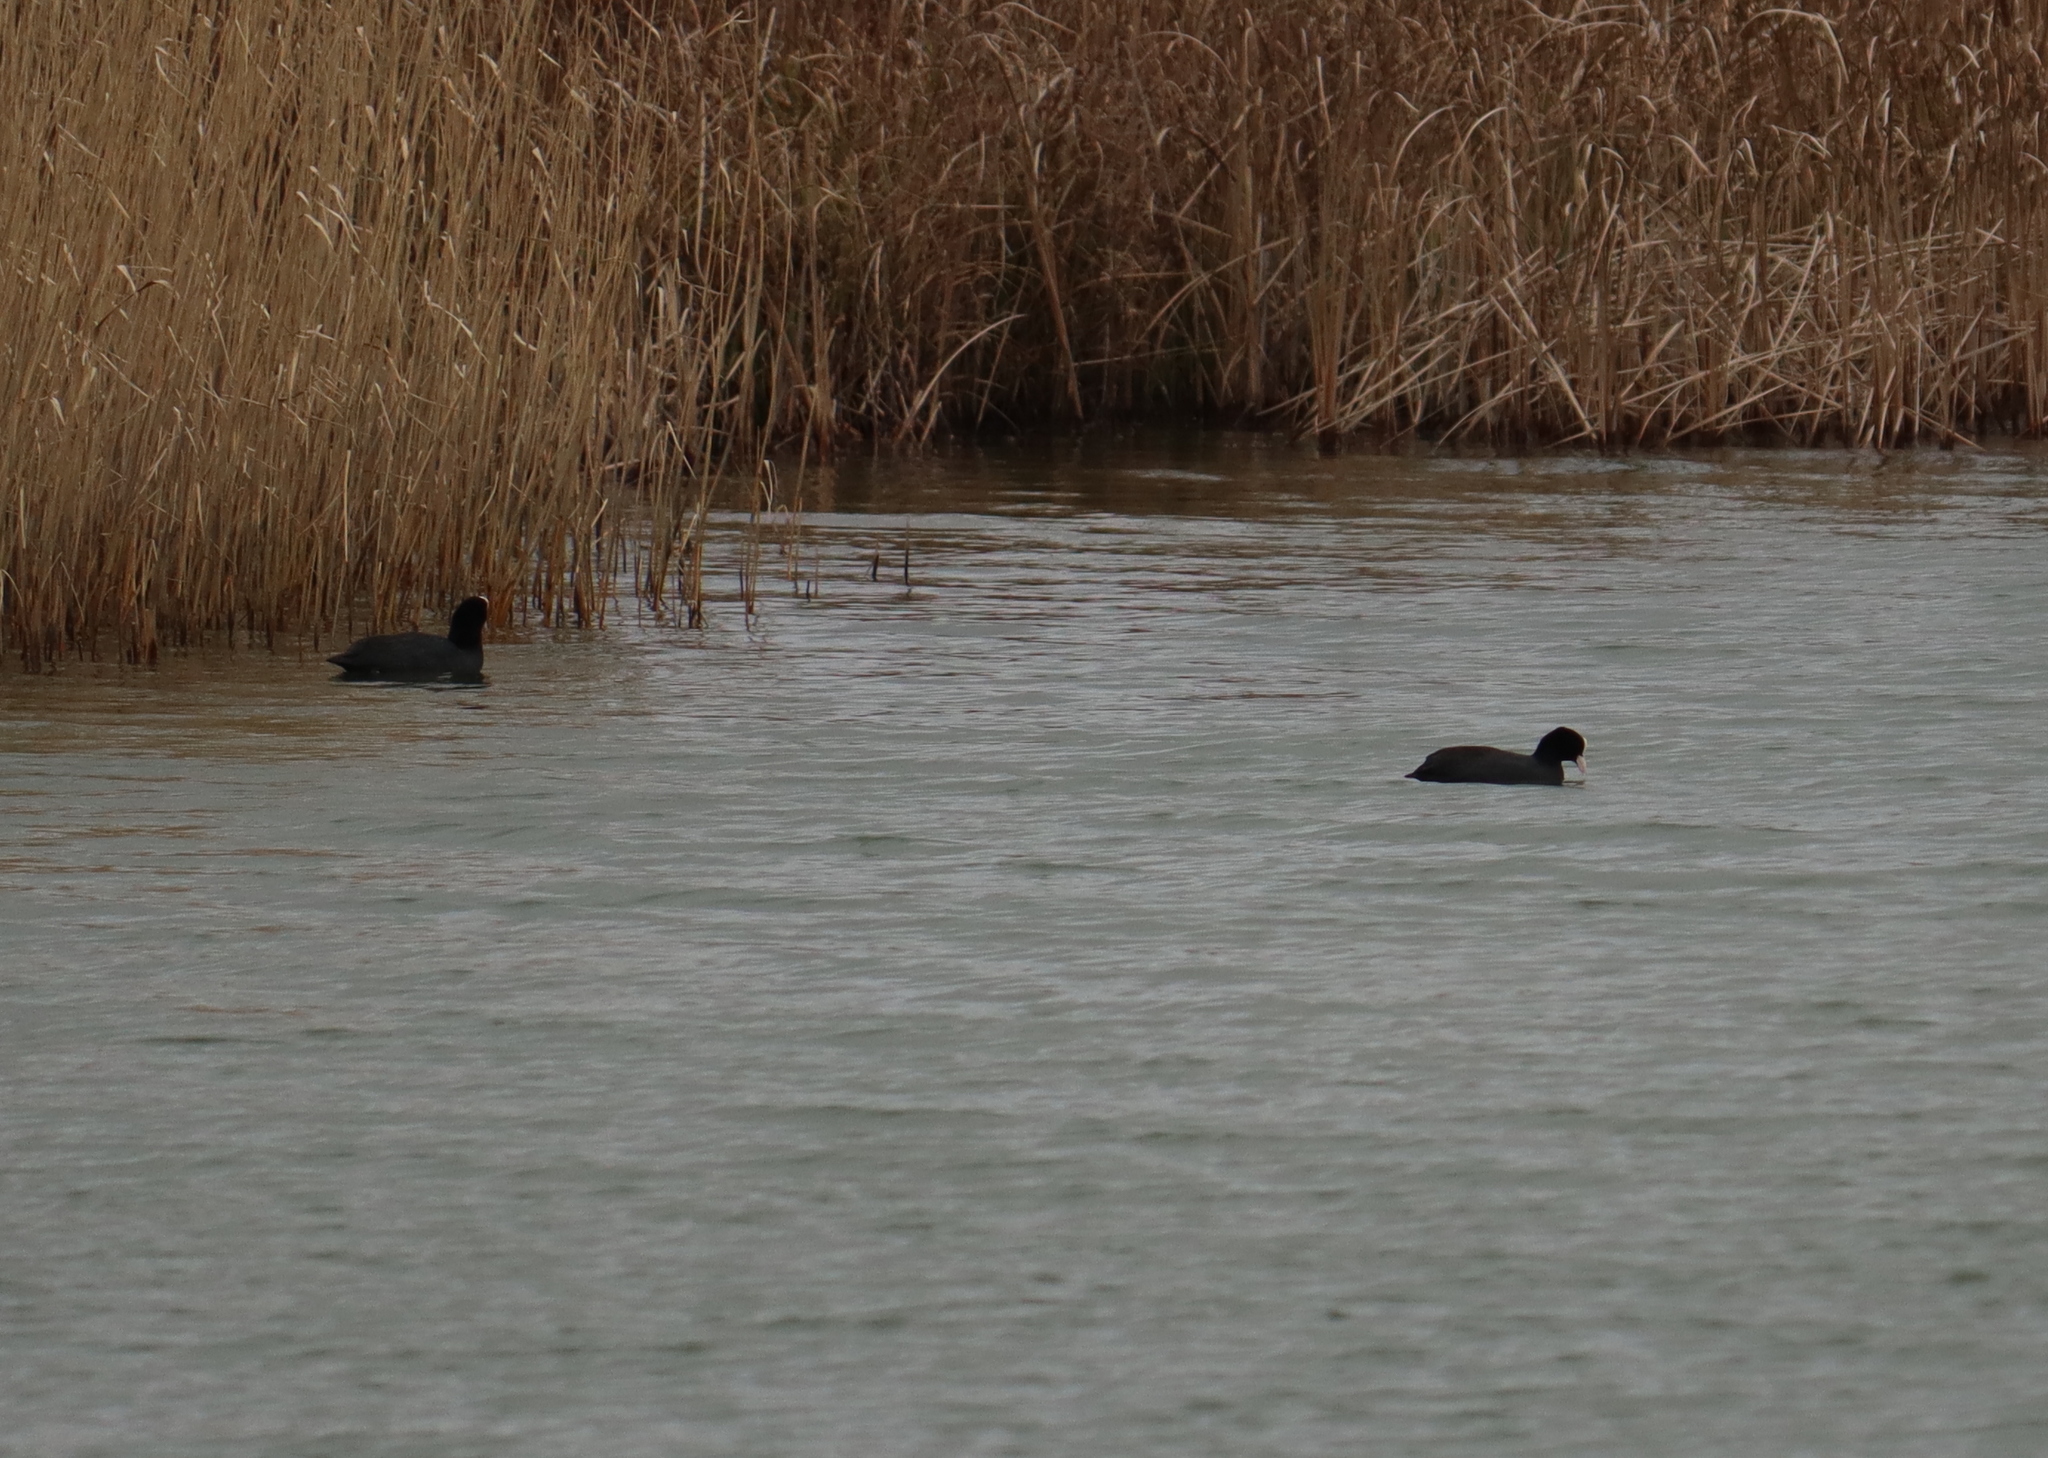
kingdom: Animalia
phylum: Chordata
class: Aves
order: Gruiformes
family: Rallidae
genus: Fulica
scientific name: Fulica atra
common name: Eurasian coot
